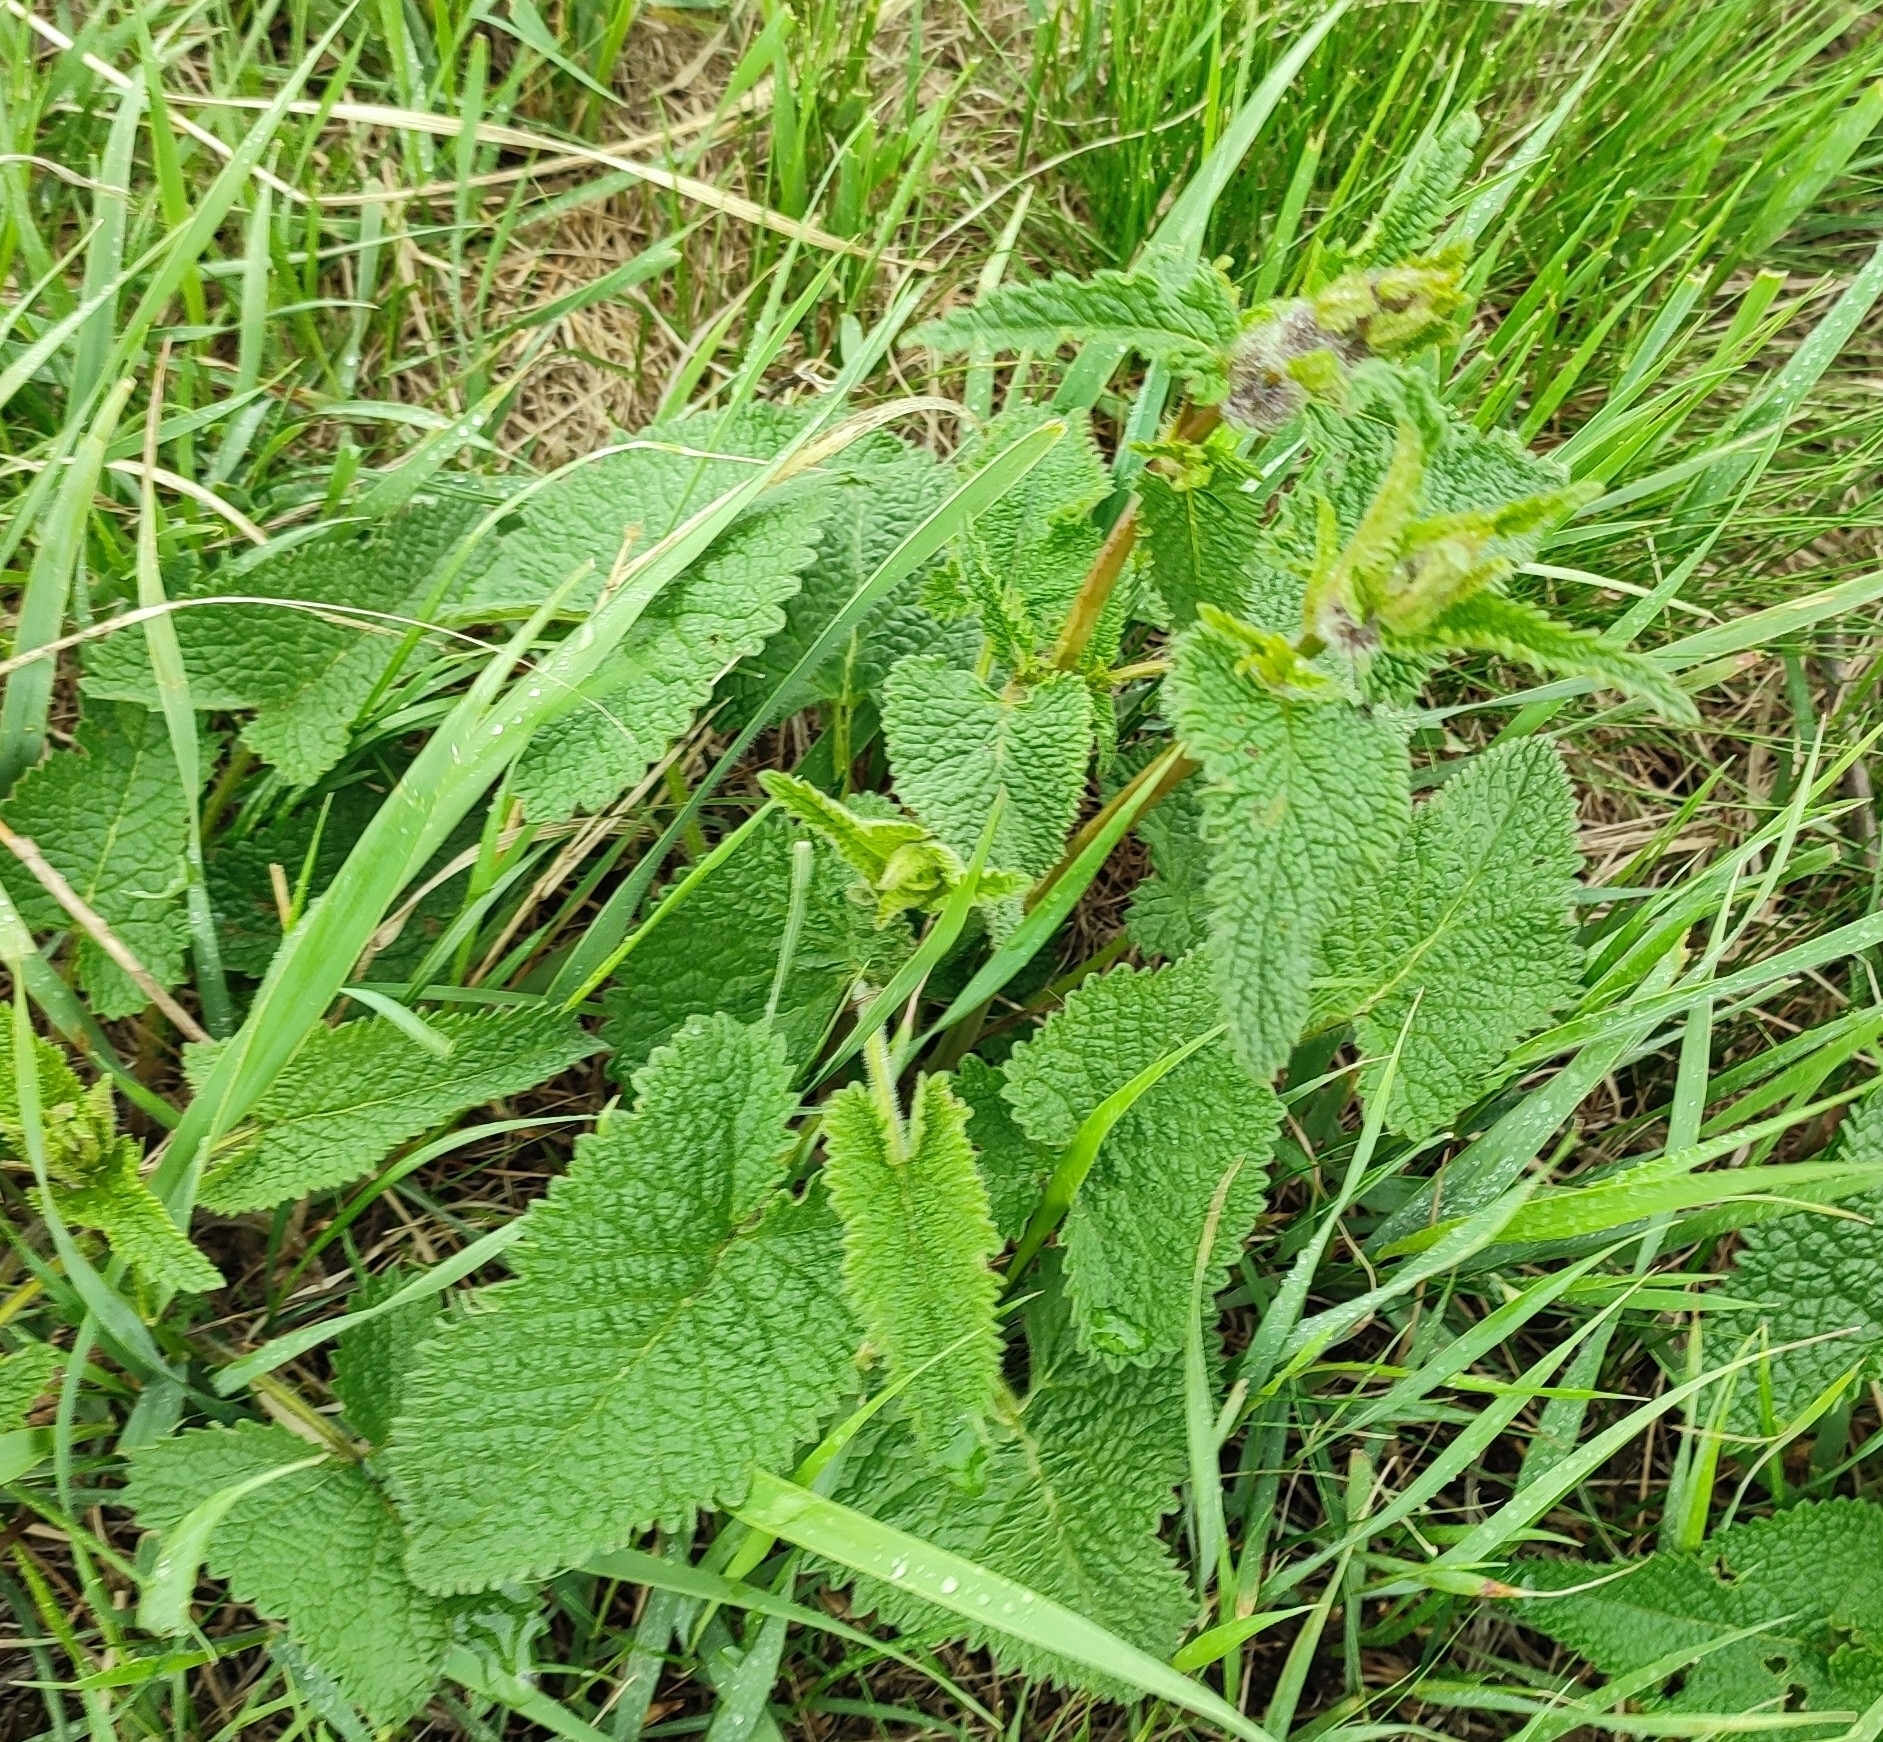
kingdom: Plantae
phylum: Tracheophyta
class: Magnoliopsida
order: Lamiales
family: Lamiaceae
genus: Phlomoides
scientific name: Phlomoides tuberosa
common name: Tuberous jerusalem sage
